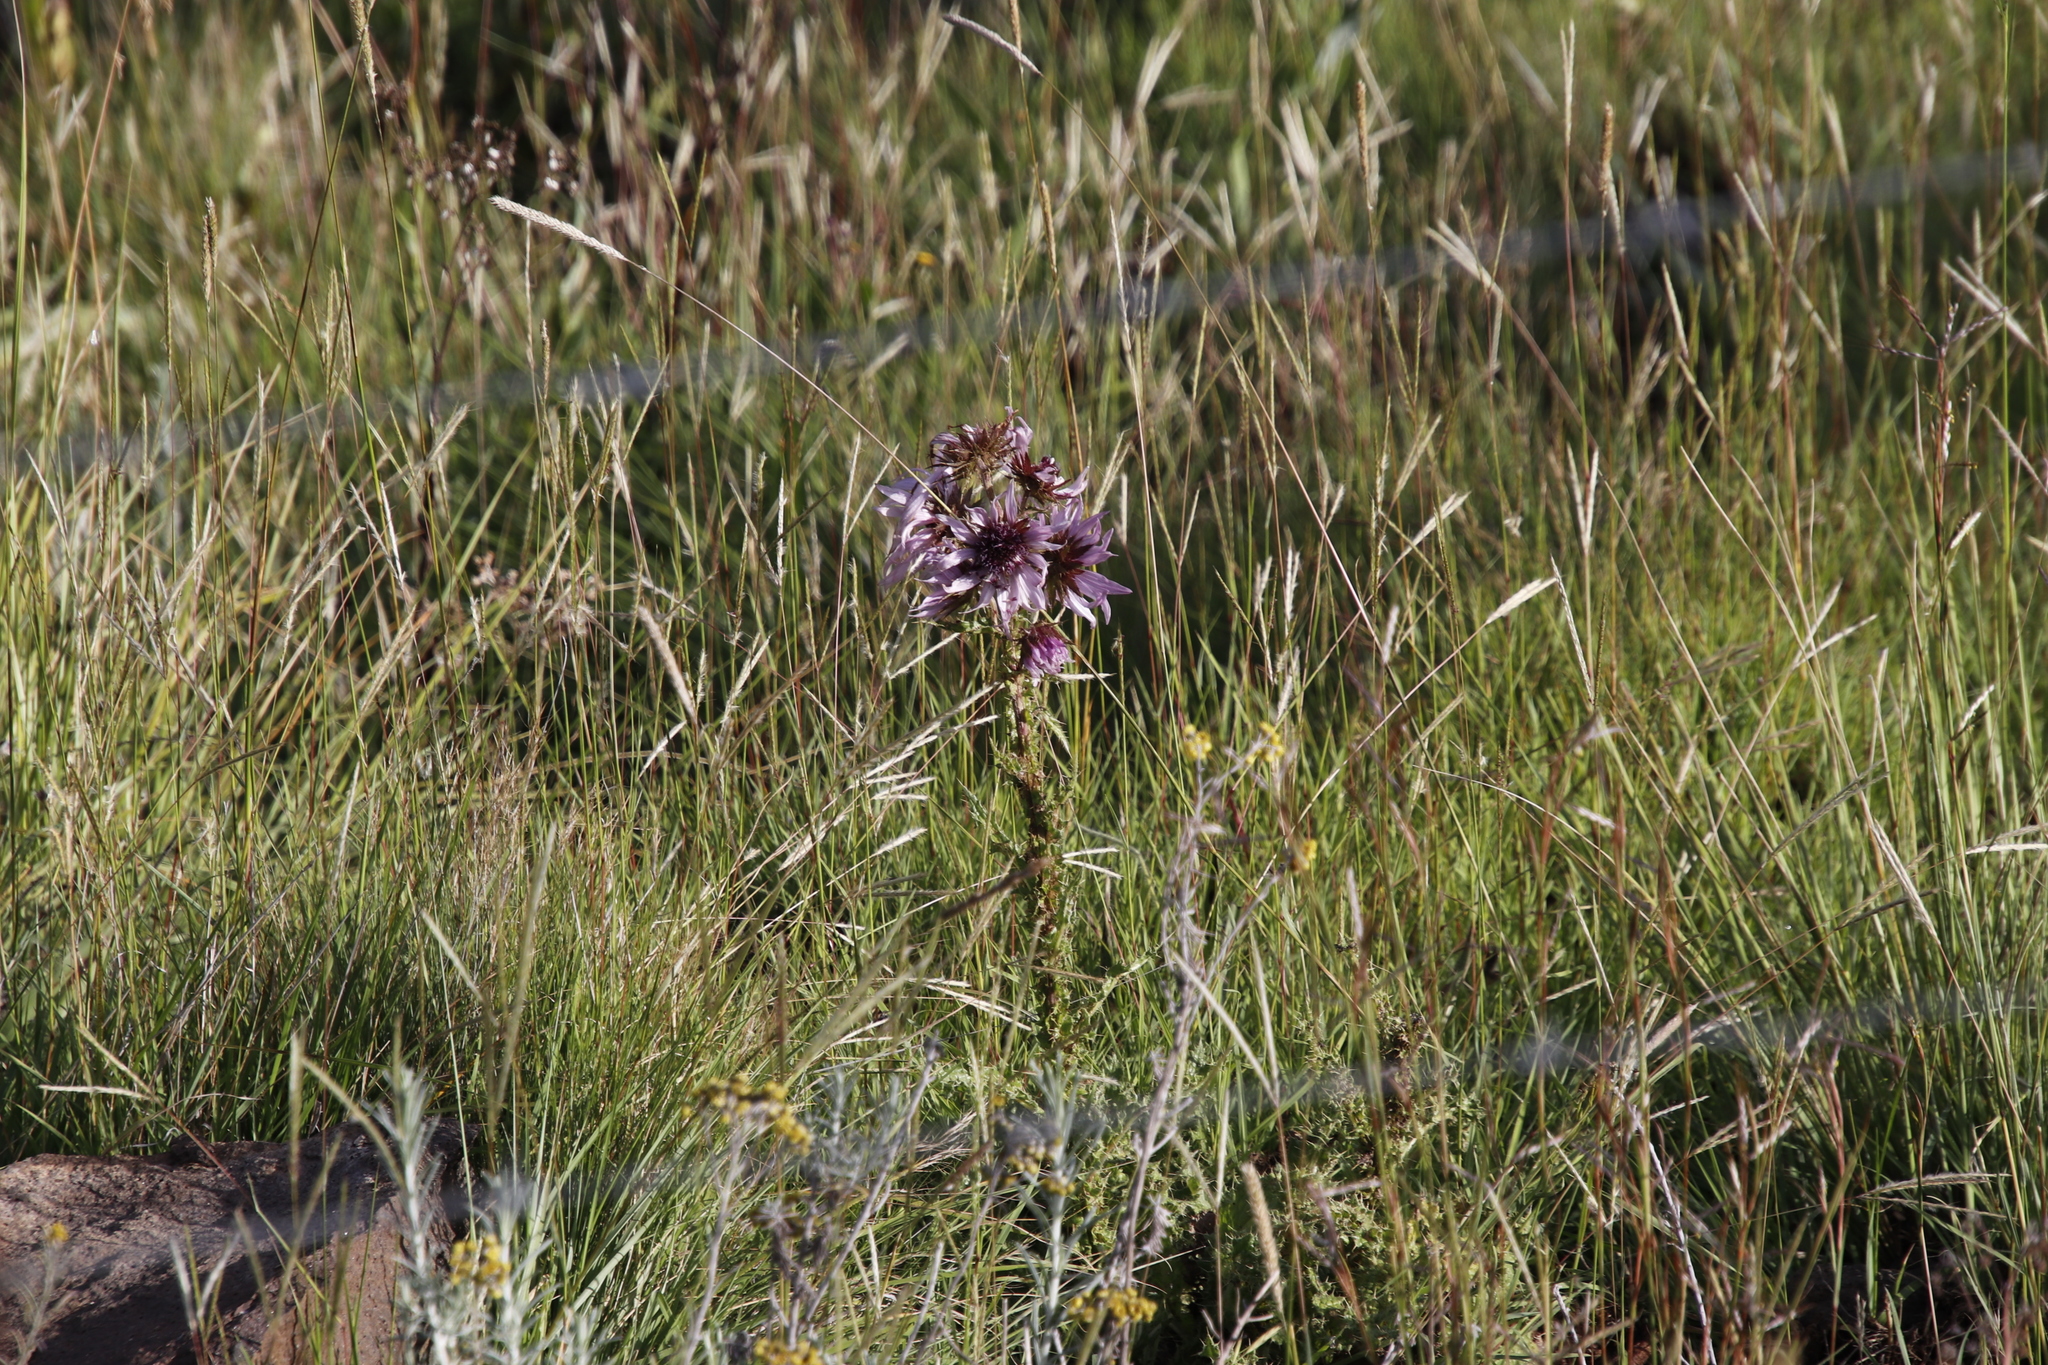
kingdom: Plantae
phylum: Tracheophyta
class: Magnoliopsida
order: Asterales
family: Asteraceae
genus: Berkheya
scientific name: Berkheya purpurea
